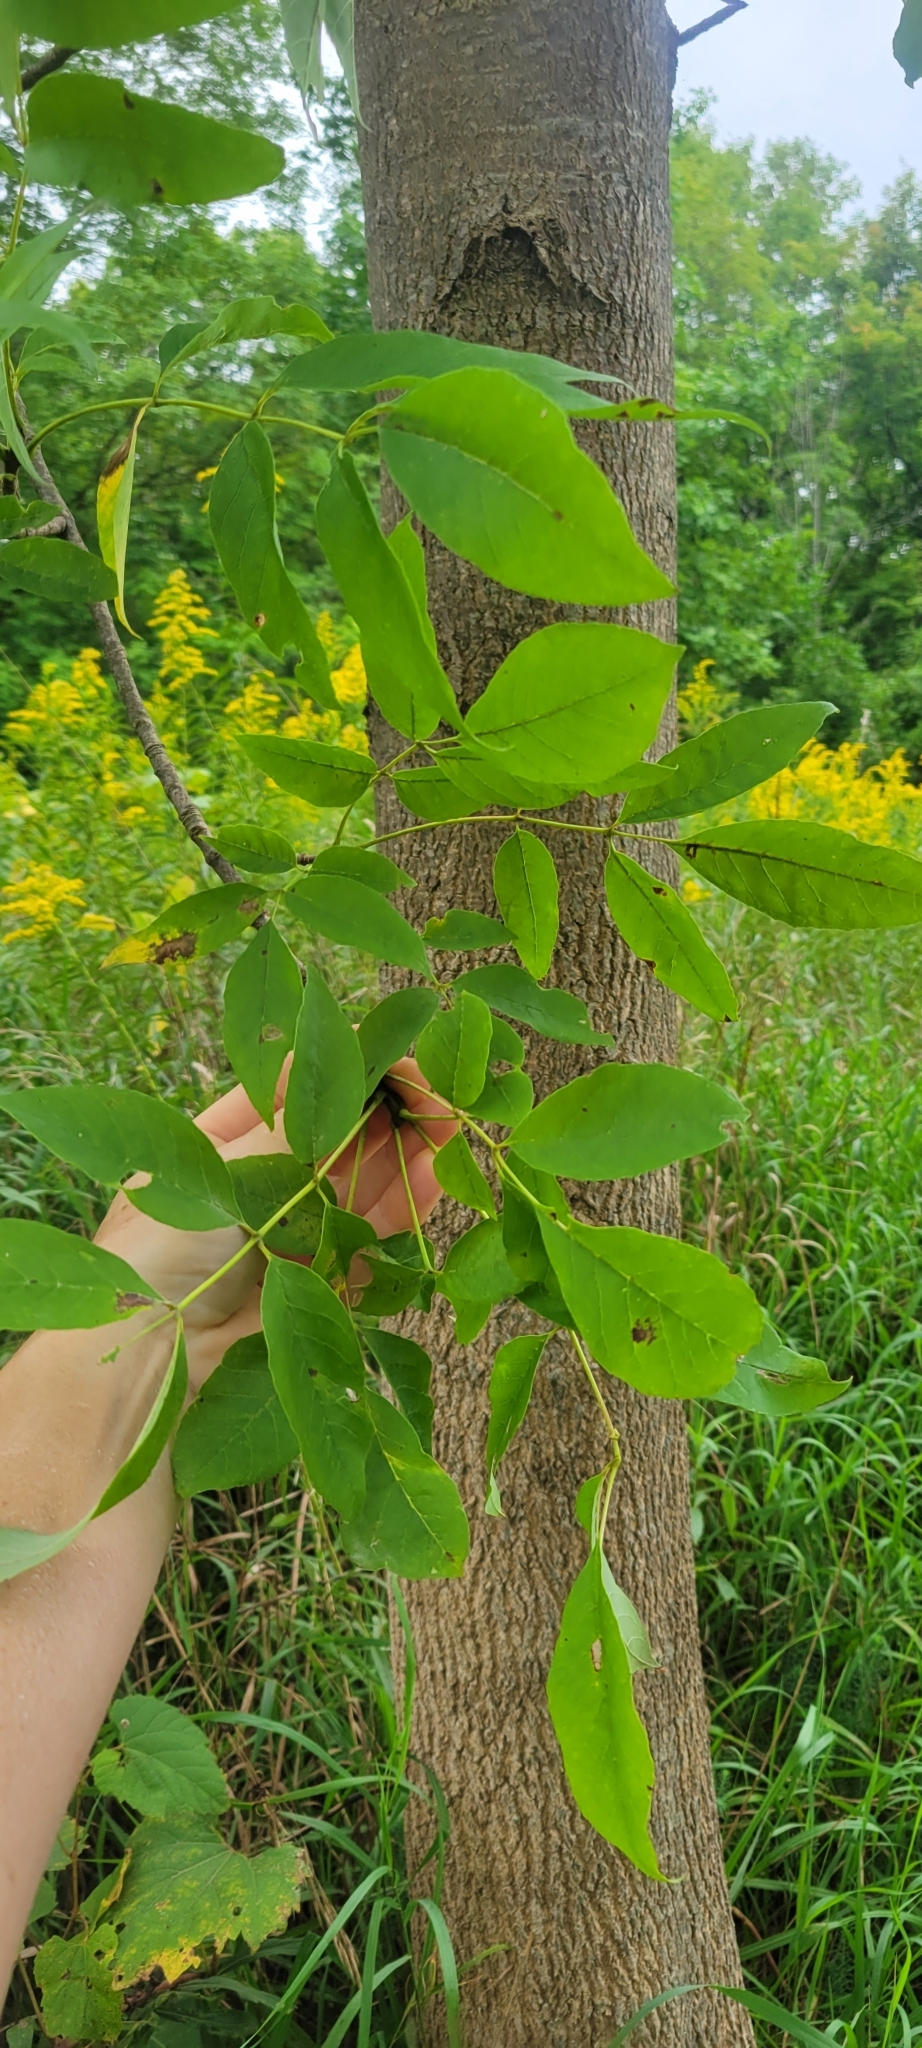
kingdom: Plantae
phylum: Tracheophyta
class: Magnoliopsida
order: Lamiales
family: Oleaceae
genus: Fraxinus
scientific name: Fraxinus americana
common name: White ash
